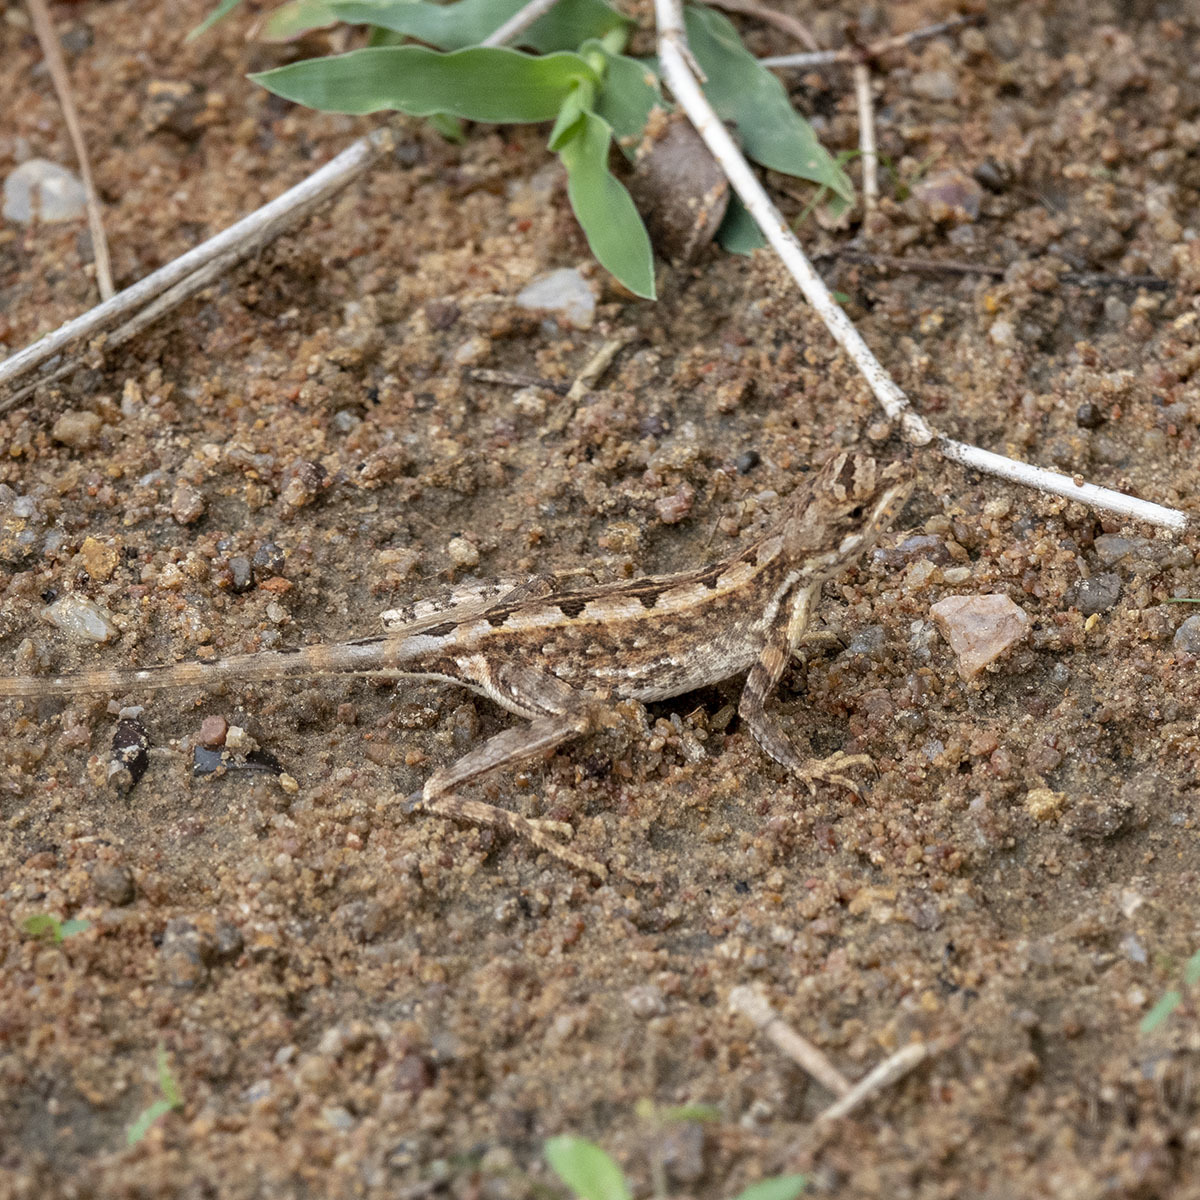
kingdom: Animalia
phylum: Chordata
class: Squamata
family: Agamidae
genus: Sitana
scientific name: Sitana ponticeriana
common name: Pondichéry fan throated lizard
